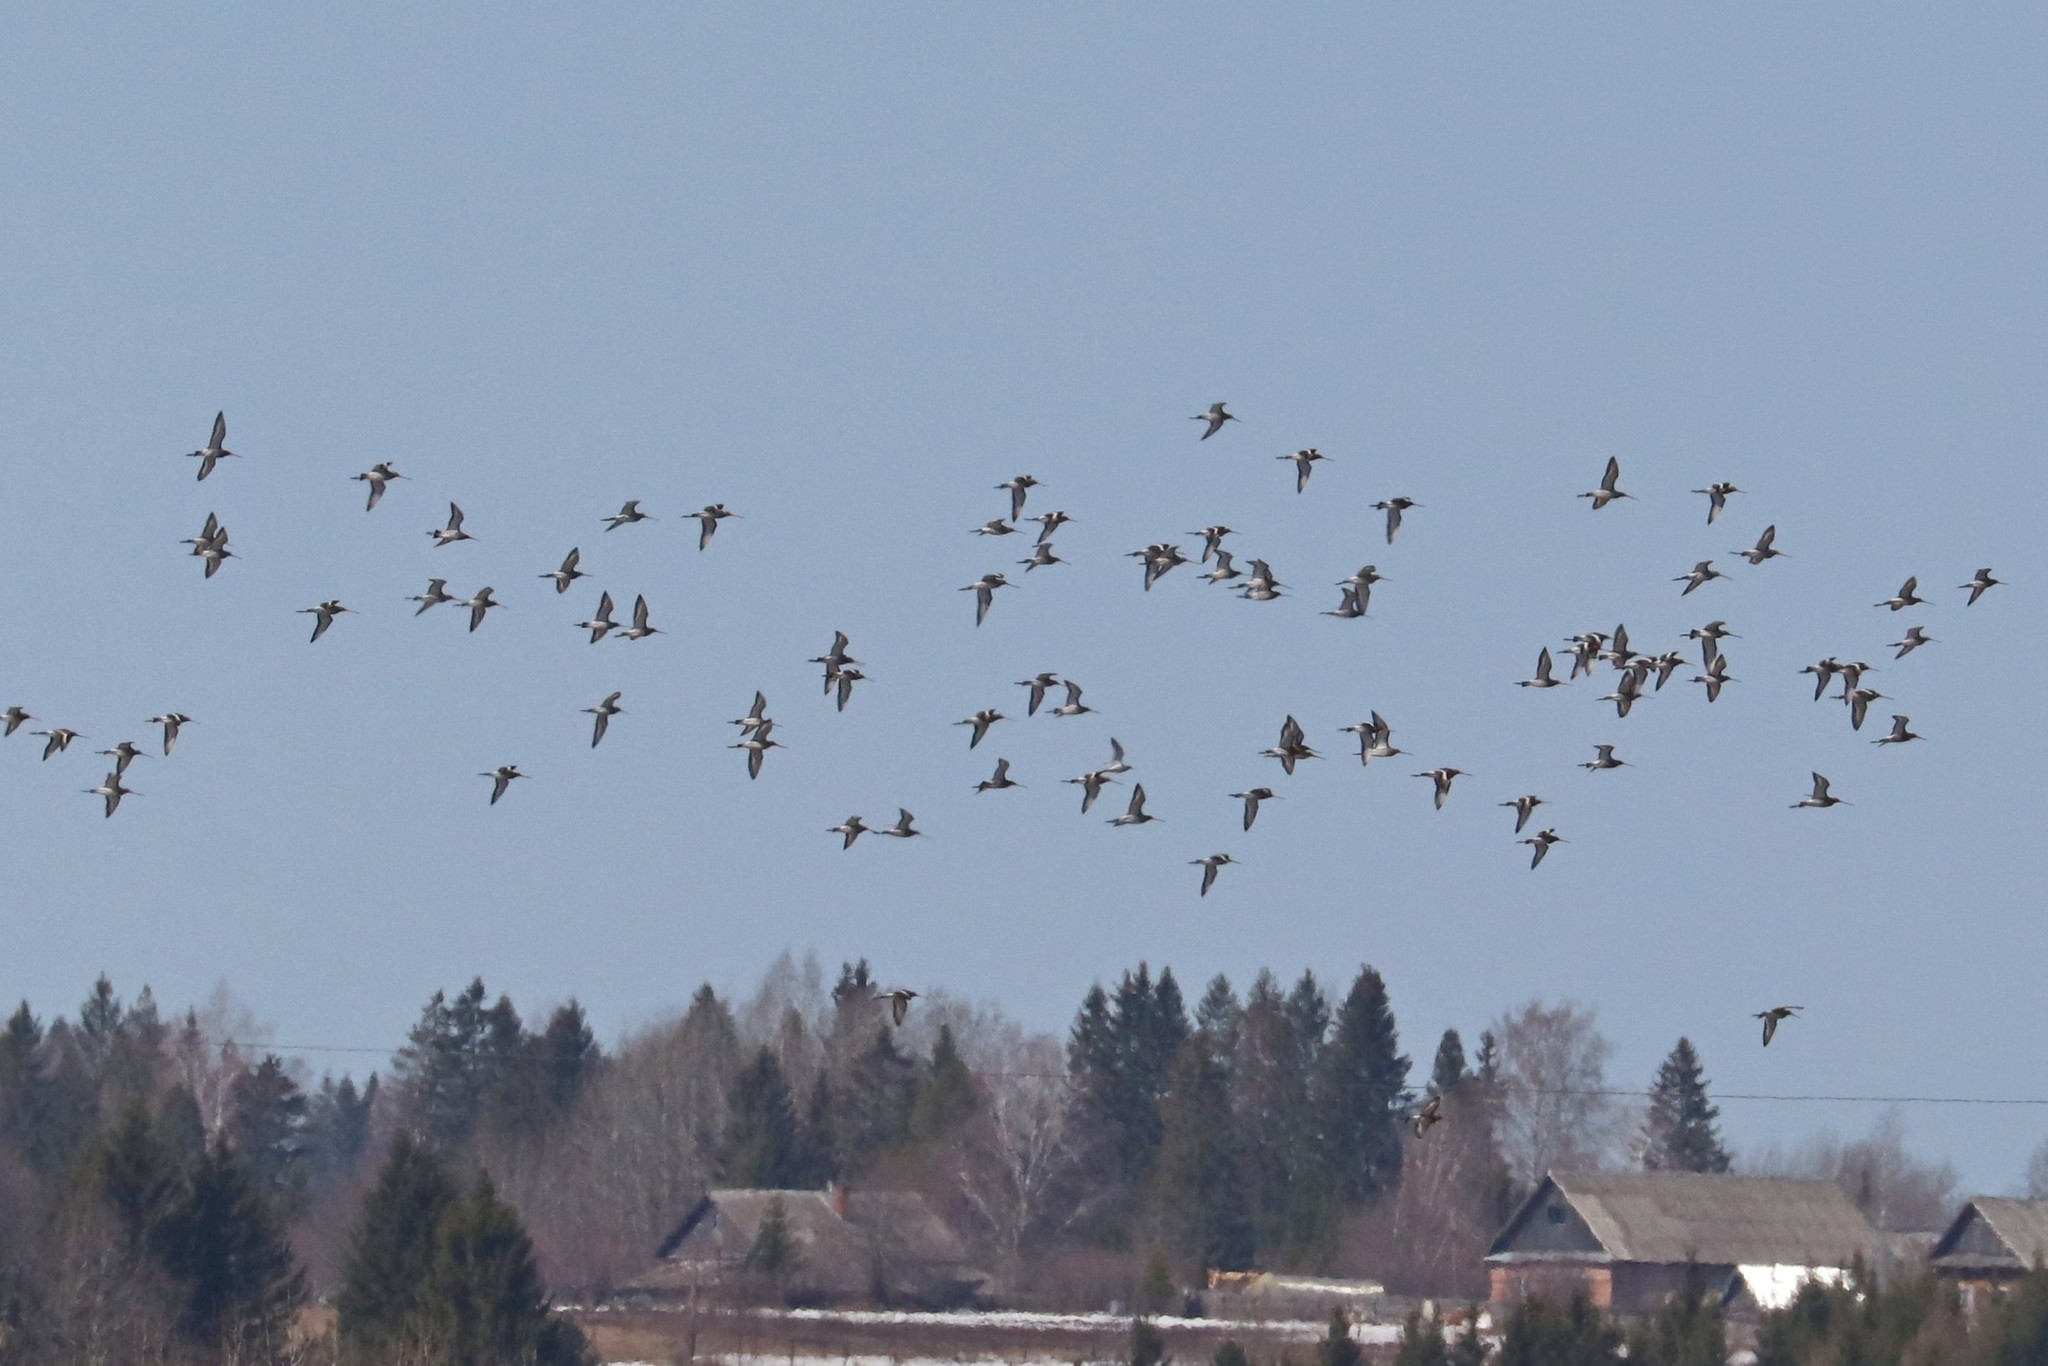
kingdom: Animalia
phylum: Chordata
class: Aves
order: Charadriiformes
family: Scolopacidae
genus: Limosa
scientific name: Limosa limosa
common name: Black-tailed godwit
